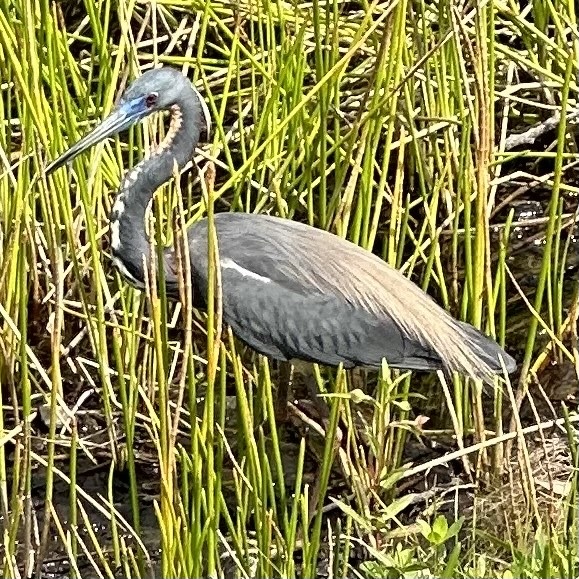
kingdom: Animalia
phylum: Chordata
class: Aves
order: Pelecaniformes
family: Ardeidae
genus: Egretta
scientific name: Egretta tricolor
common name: Tricolored heron
